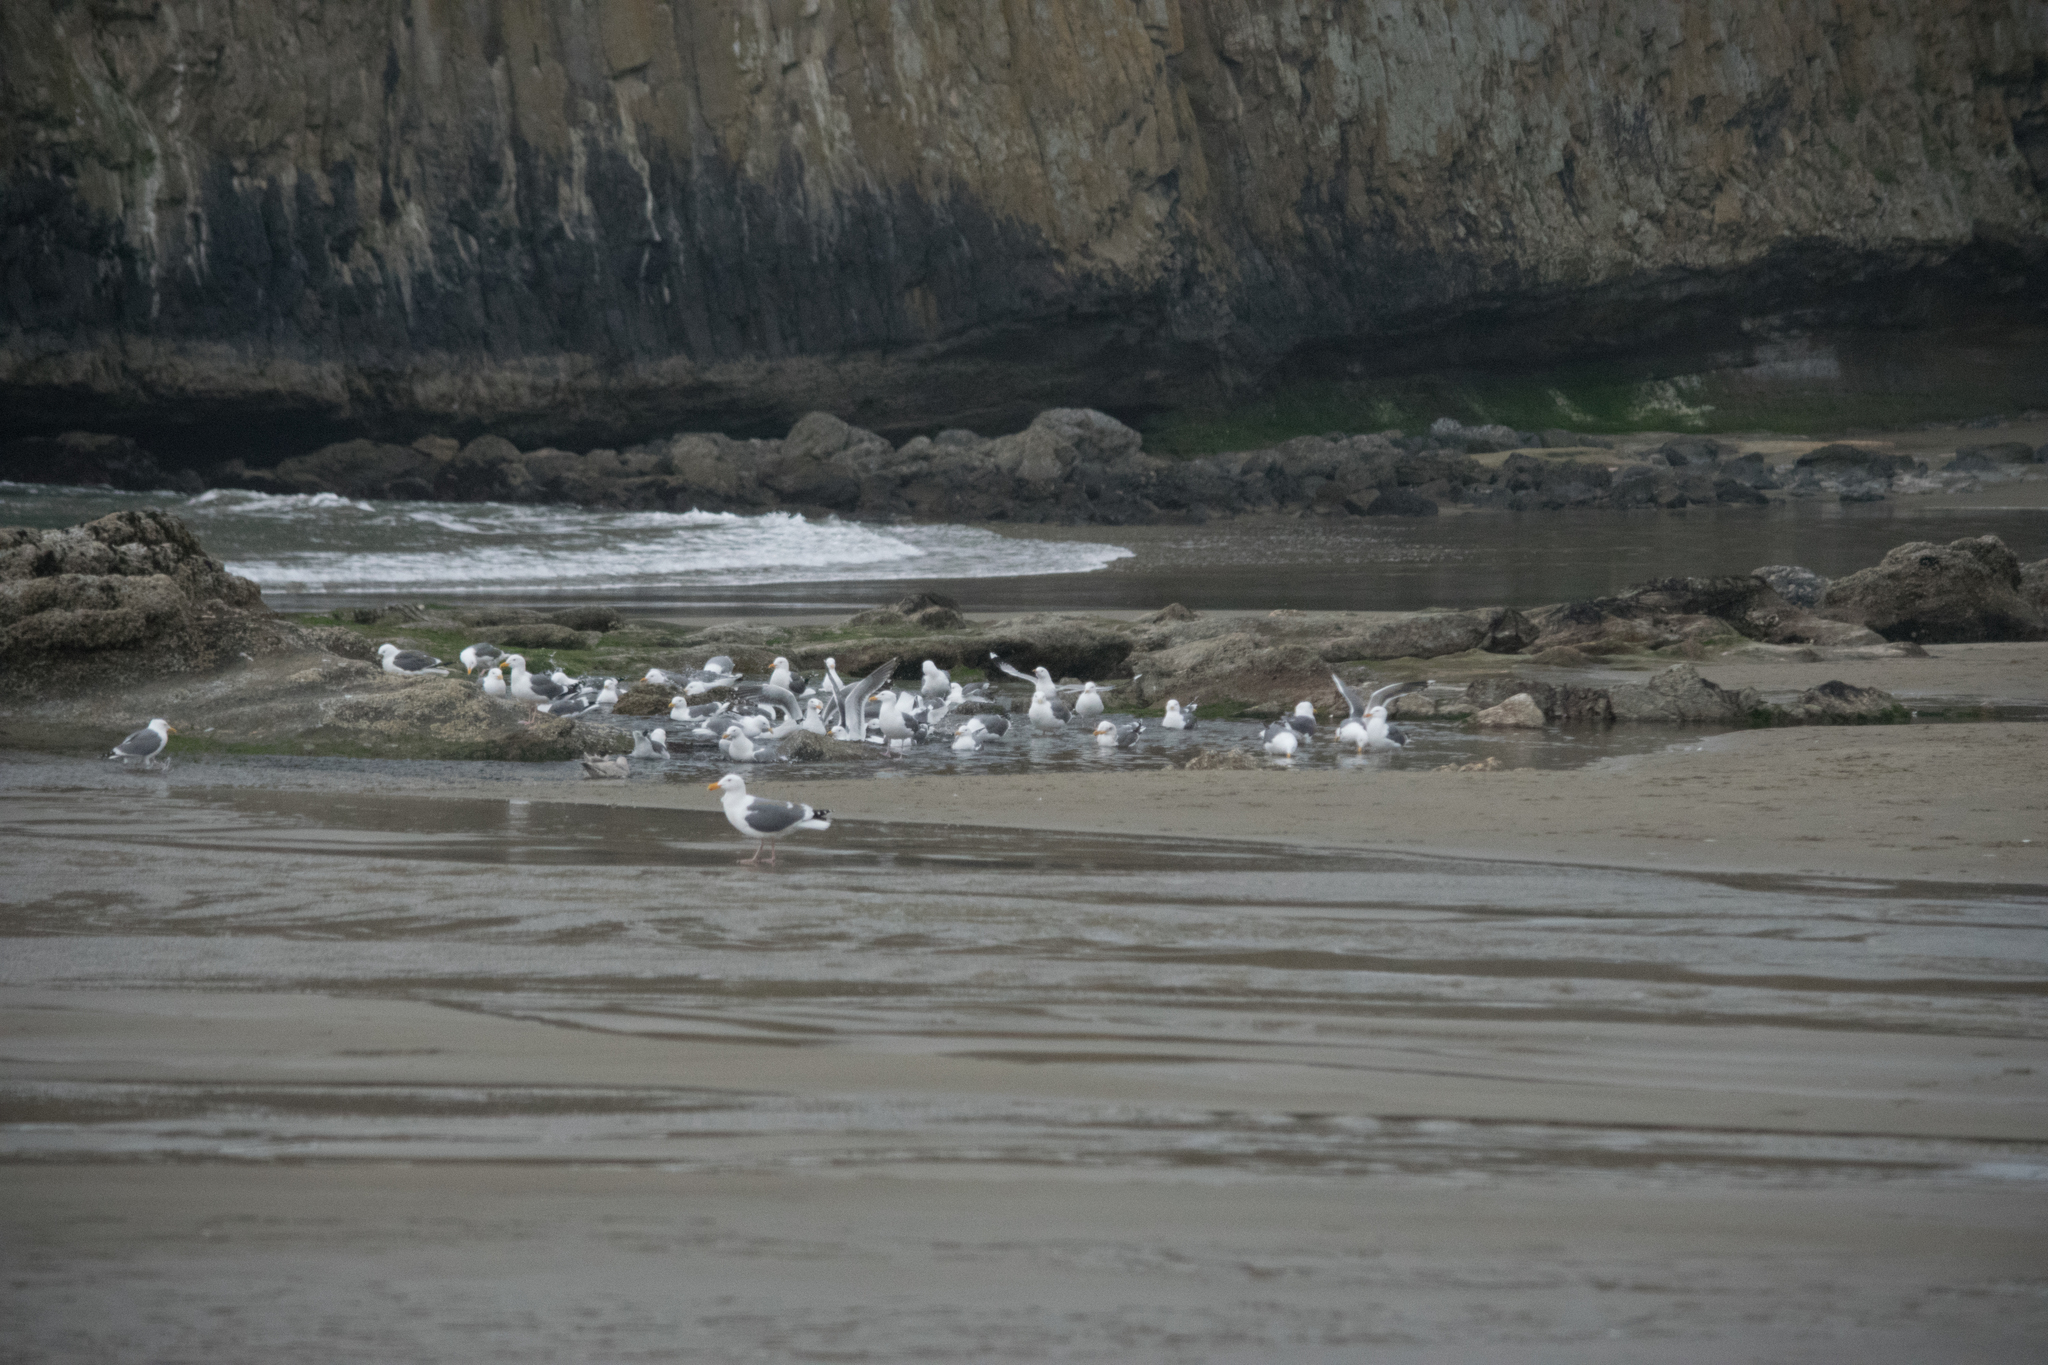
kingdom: Animalia
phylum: Chordata
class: Aves
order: Charadriiformes
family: Laridae
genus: Larus
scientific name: Larus occidentalis
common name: Western gull
